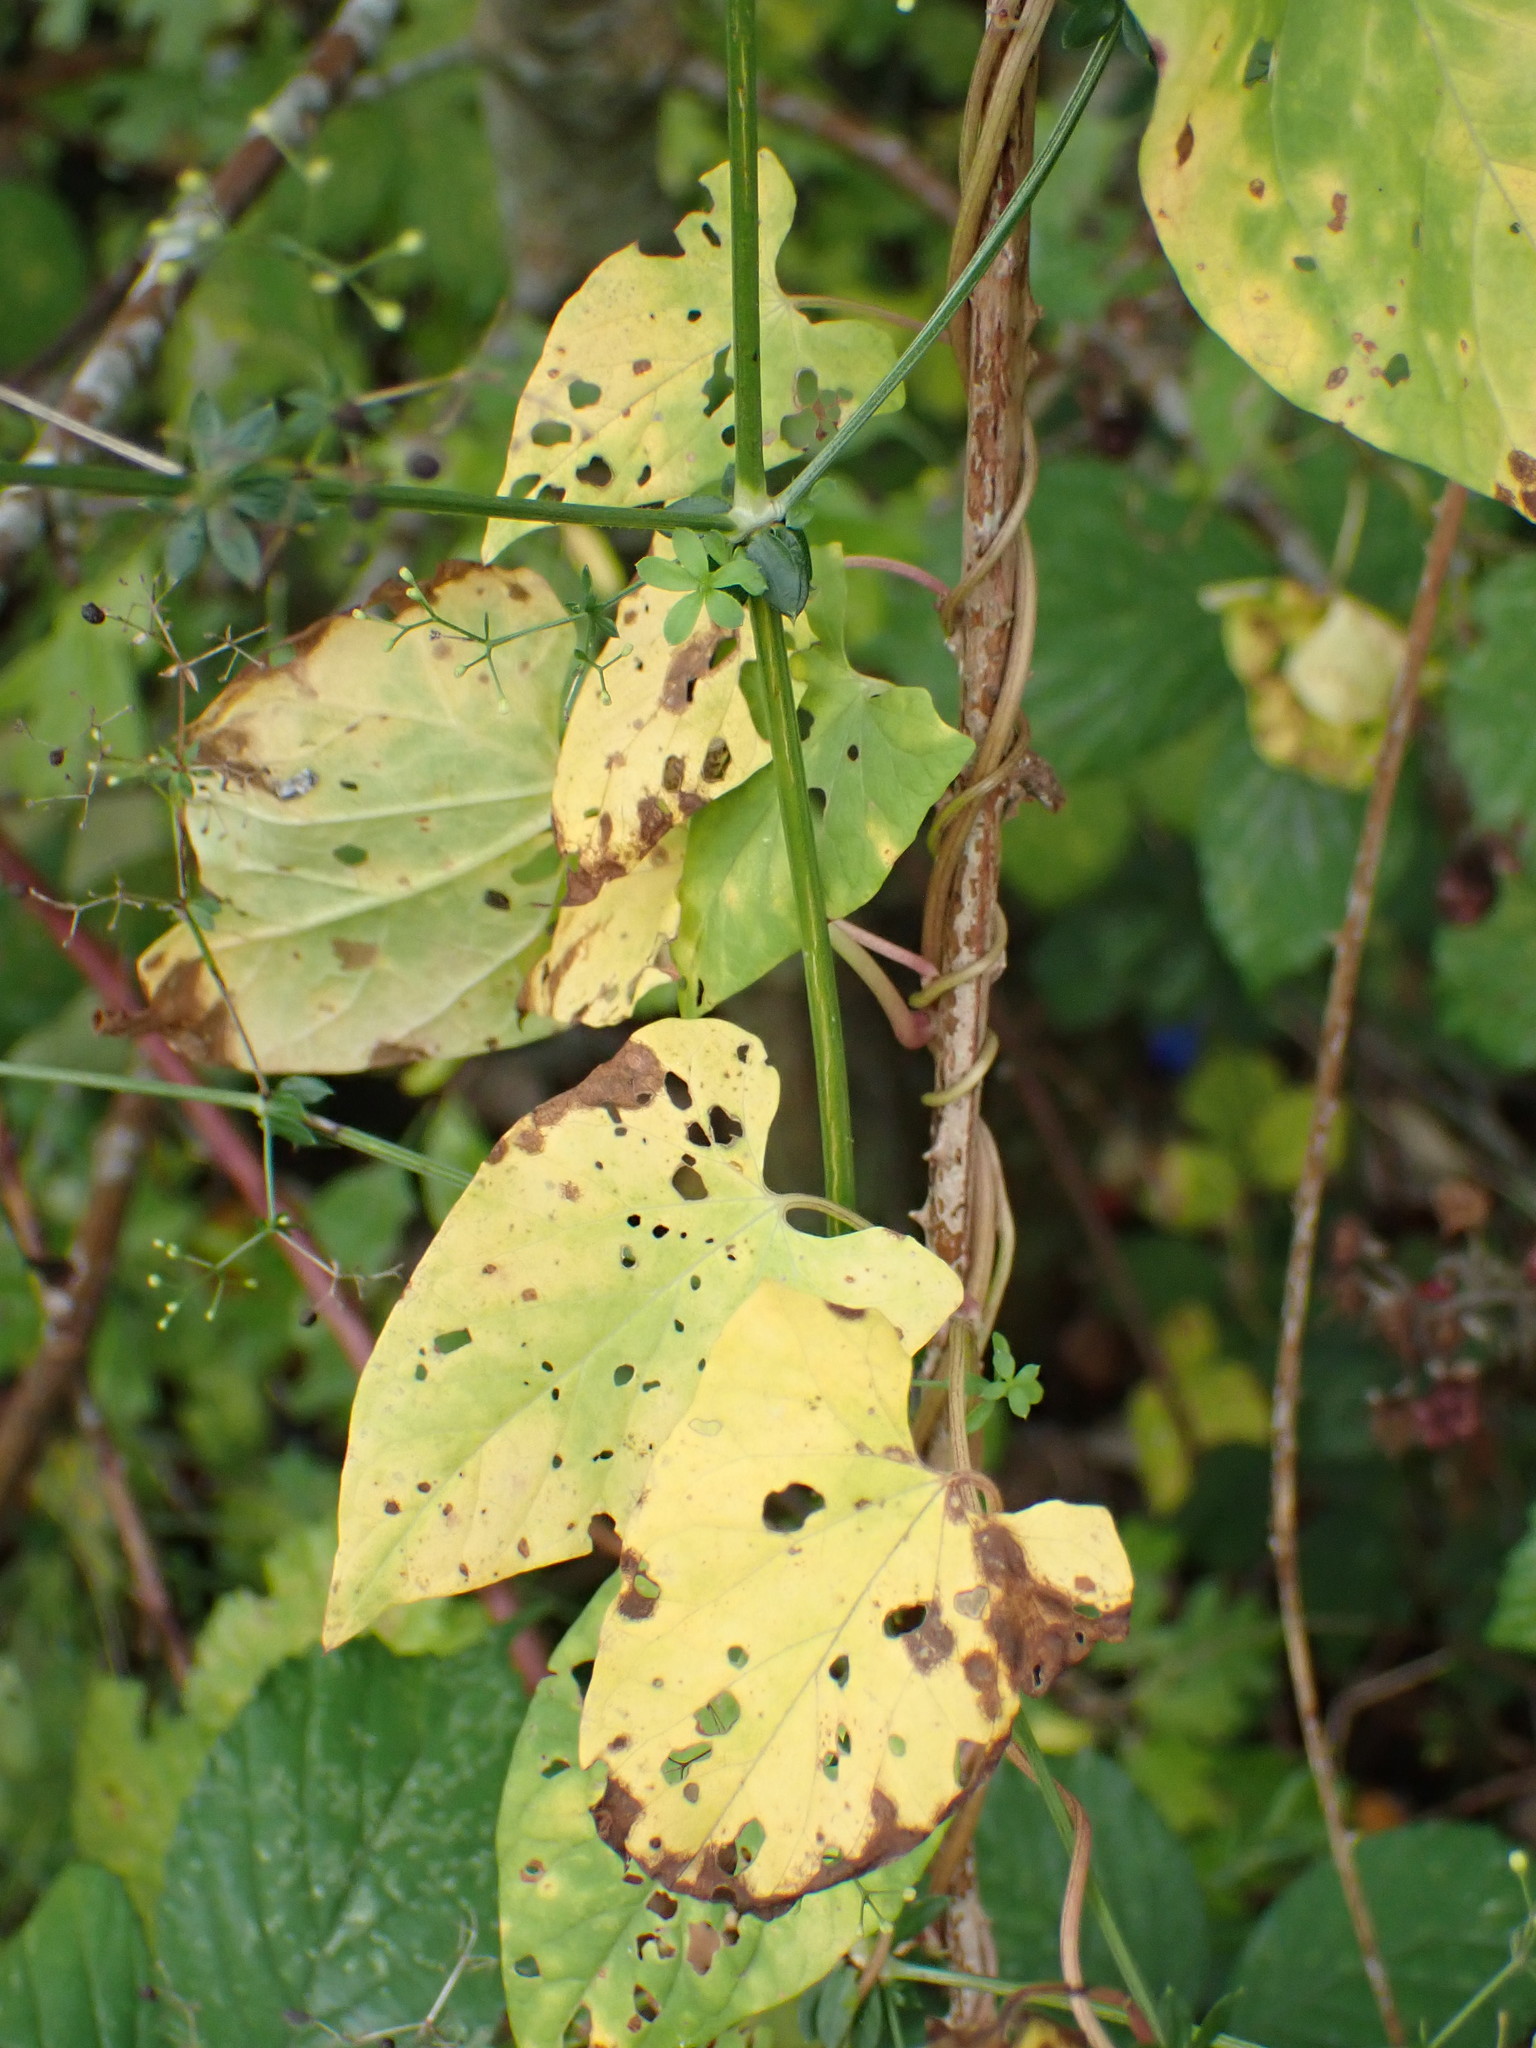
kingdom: Plantae
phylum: Tracheophyta
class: Liliopsida
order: Dioscoreales
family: Dioscoreaceae
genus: Dioscorea
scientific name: Dioscorea communis
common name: Black-bindweed
